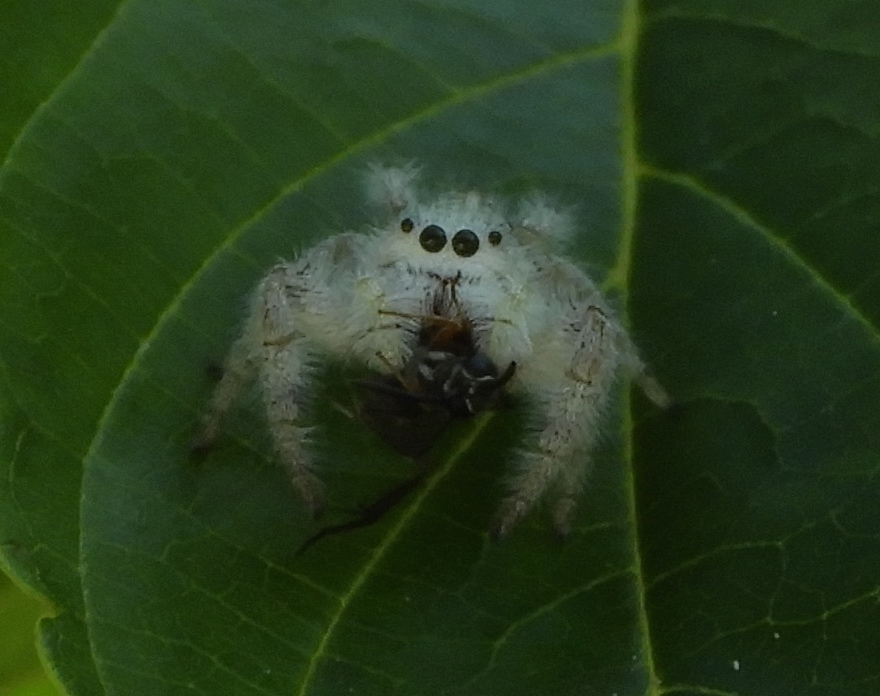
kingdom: Animalia
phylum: Arthropoda
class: Arachnida
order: Araneae
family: Salticidae
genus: Paraphidippus
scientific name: Paraphidippus fartilis
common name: Jumping spiders
